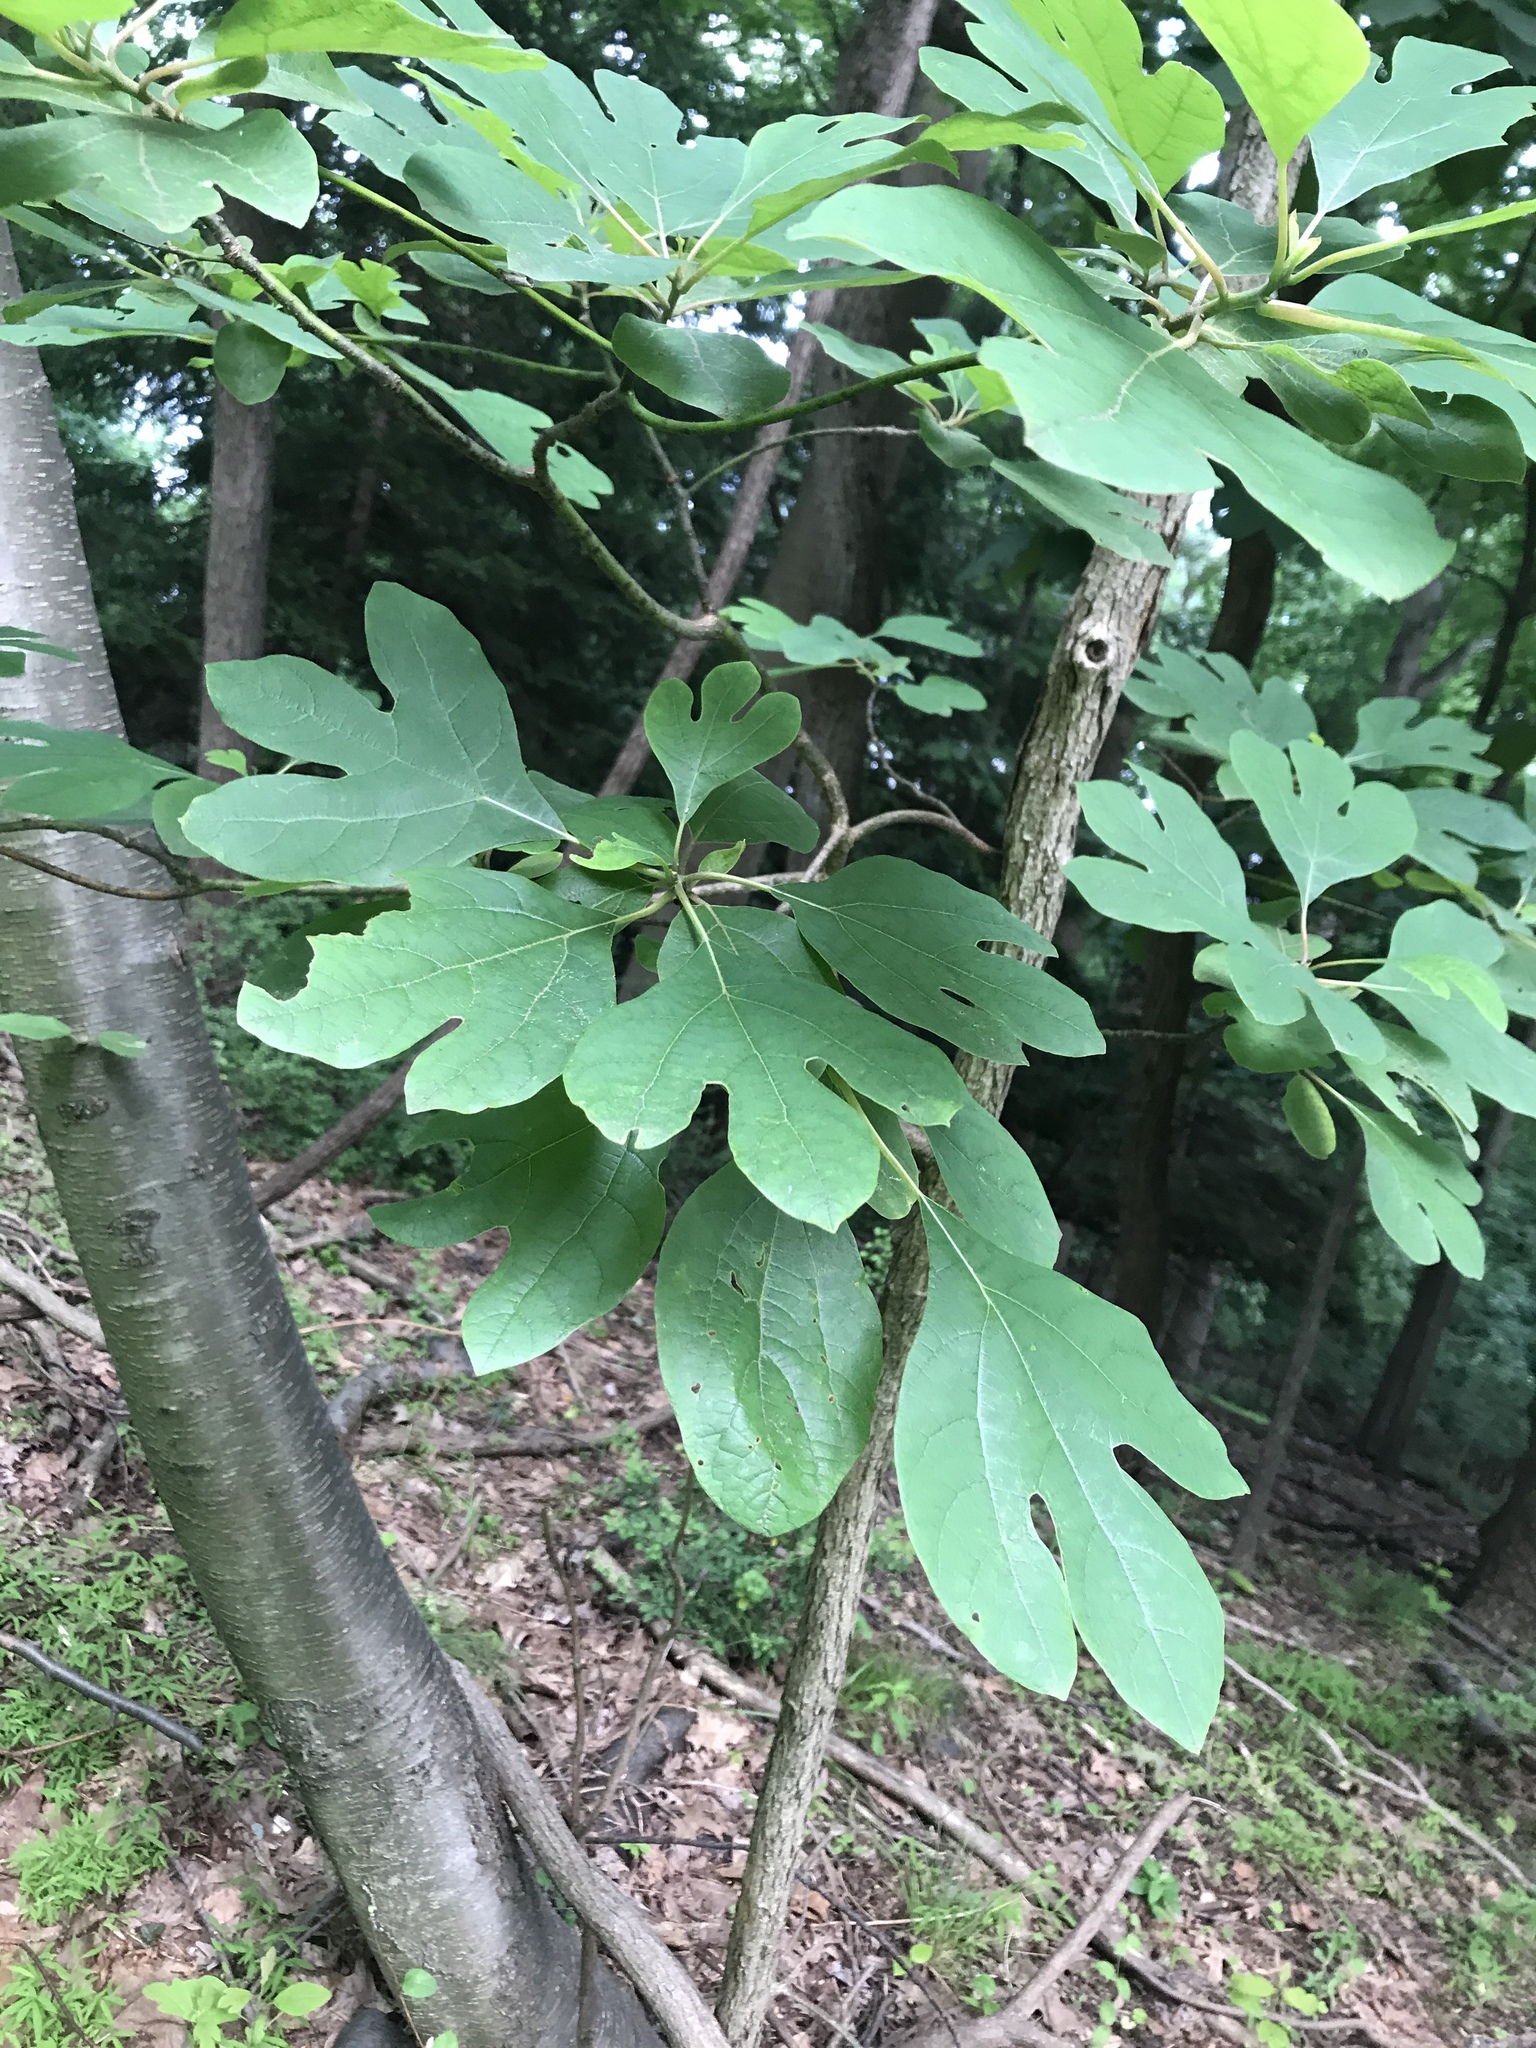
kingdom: Plantae
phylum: Tracheophyta
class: Magnoliopsida
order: Laurales
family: Lauraceae
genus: Sassafras
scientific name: Sassafras albidum
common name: Sassafras
